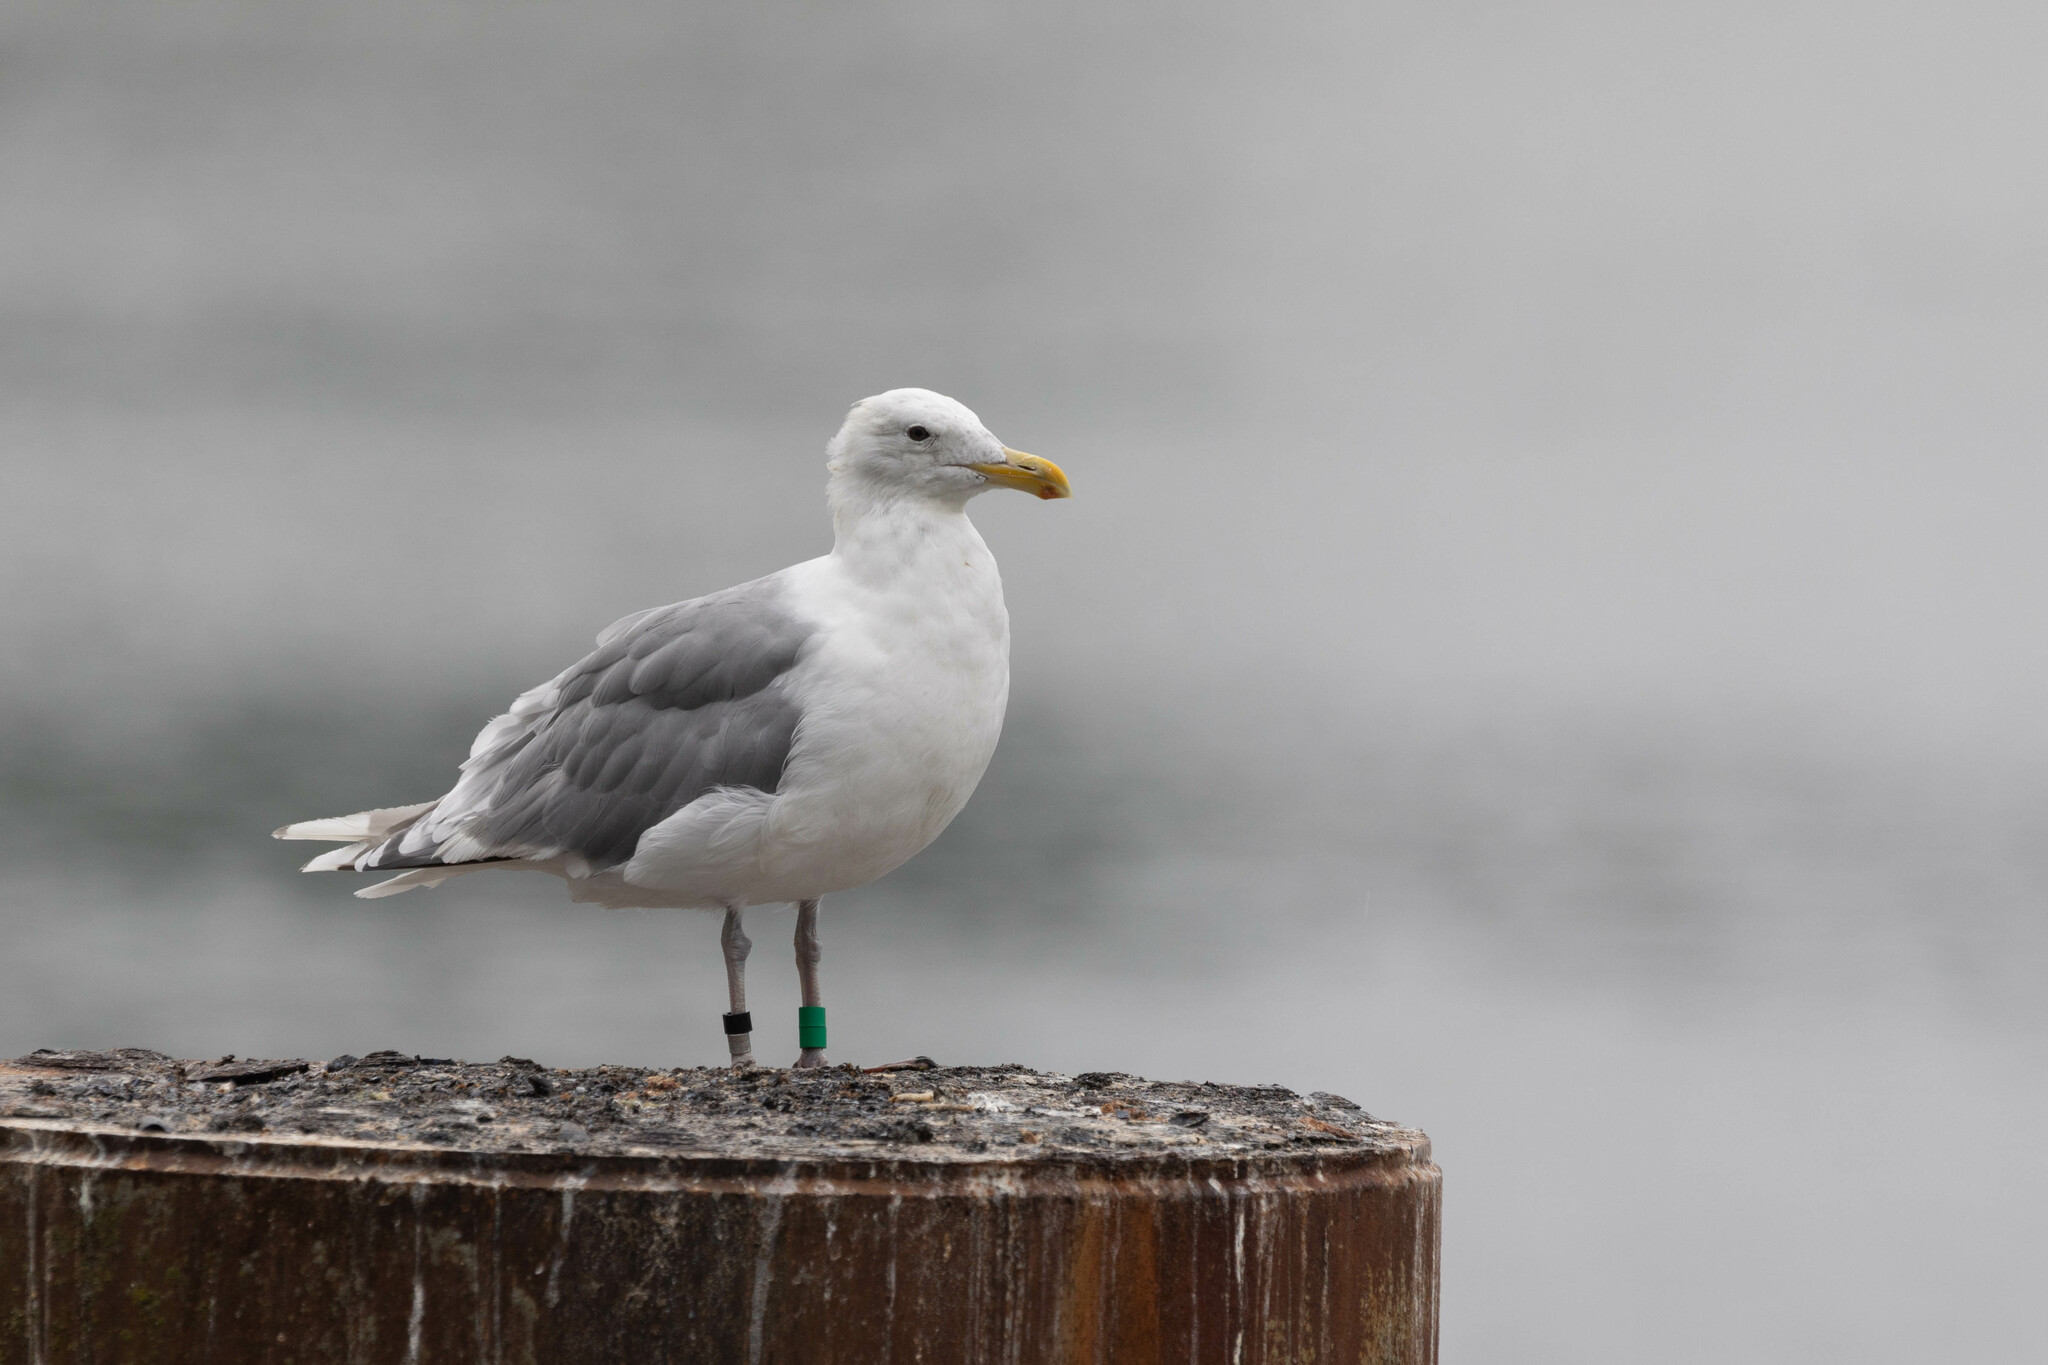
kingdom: Animalia
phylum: Chordata
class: Aves
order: Charadriiformes
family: Laridae
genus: Larus
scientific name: Larus
